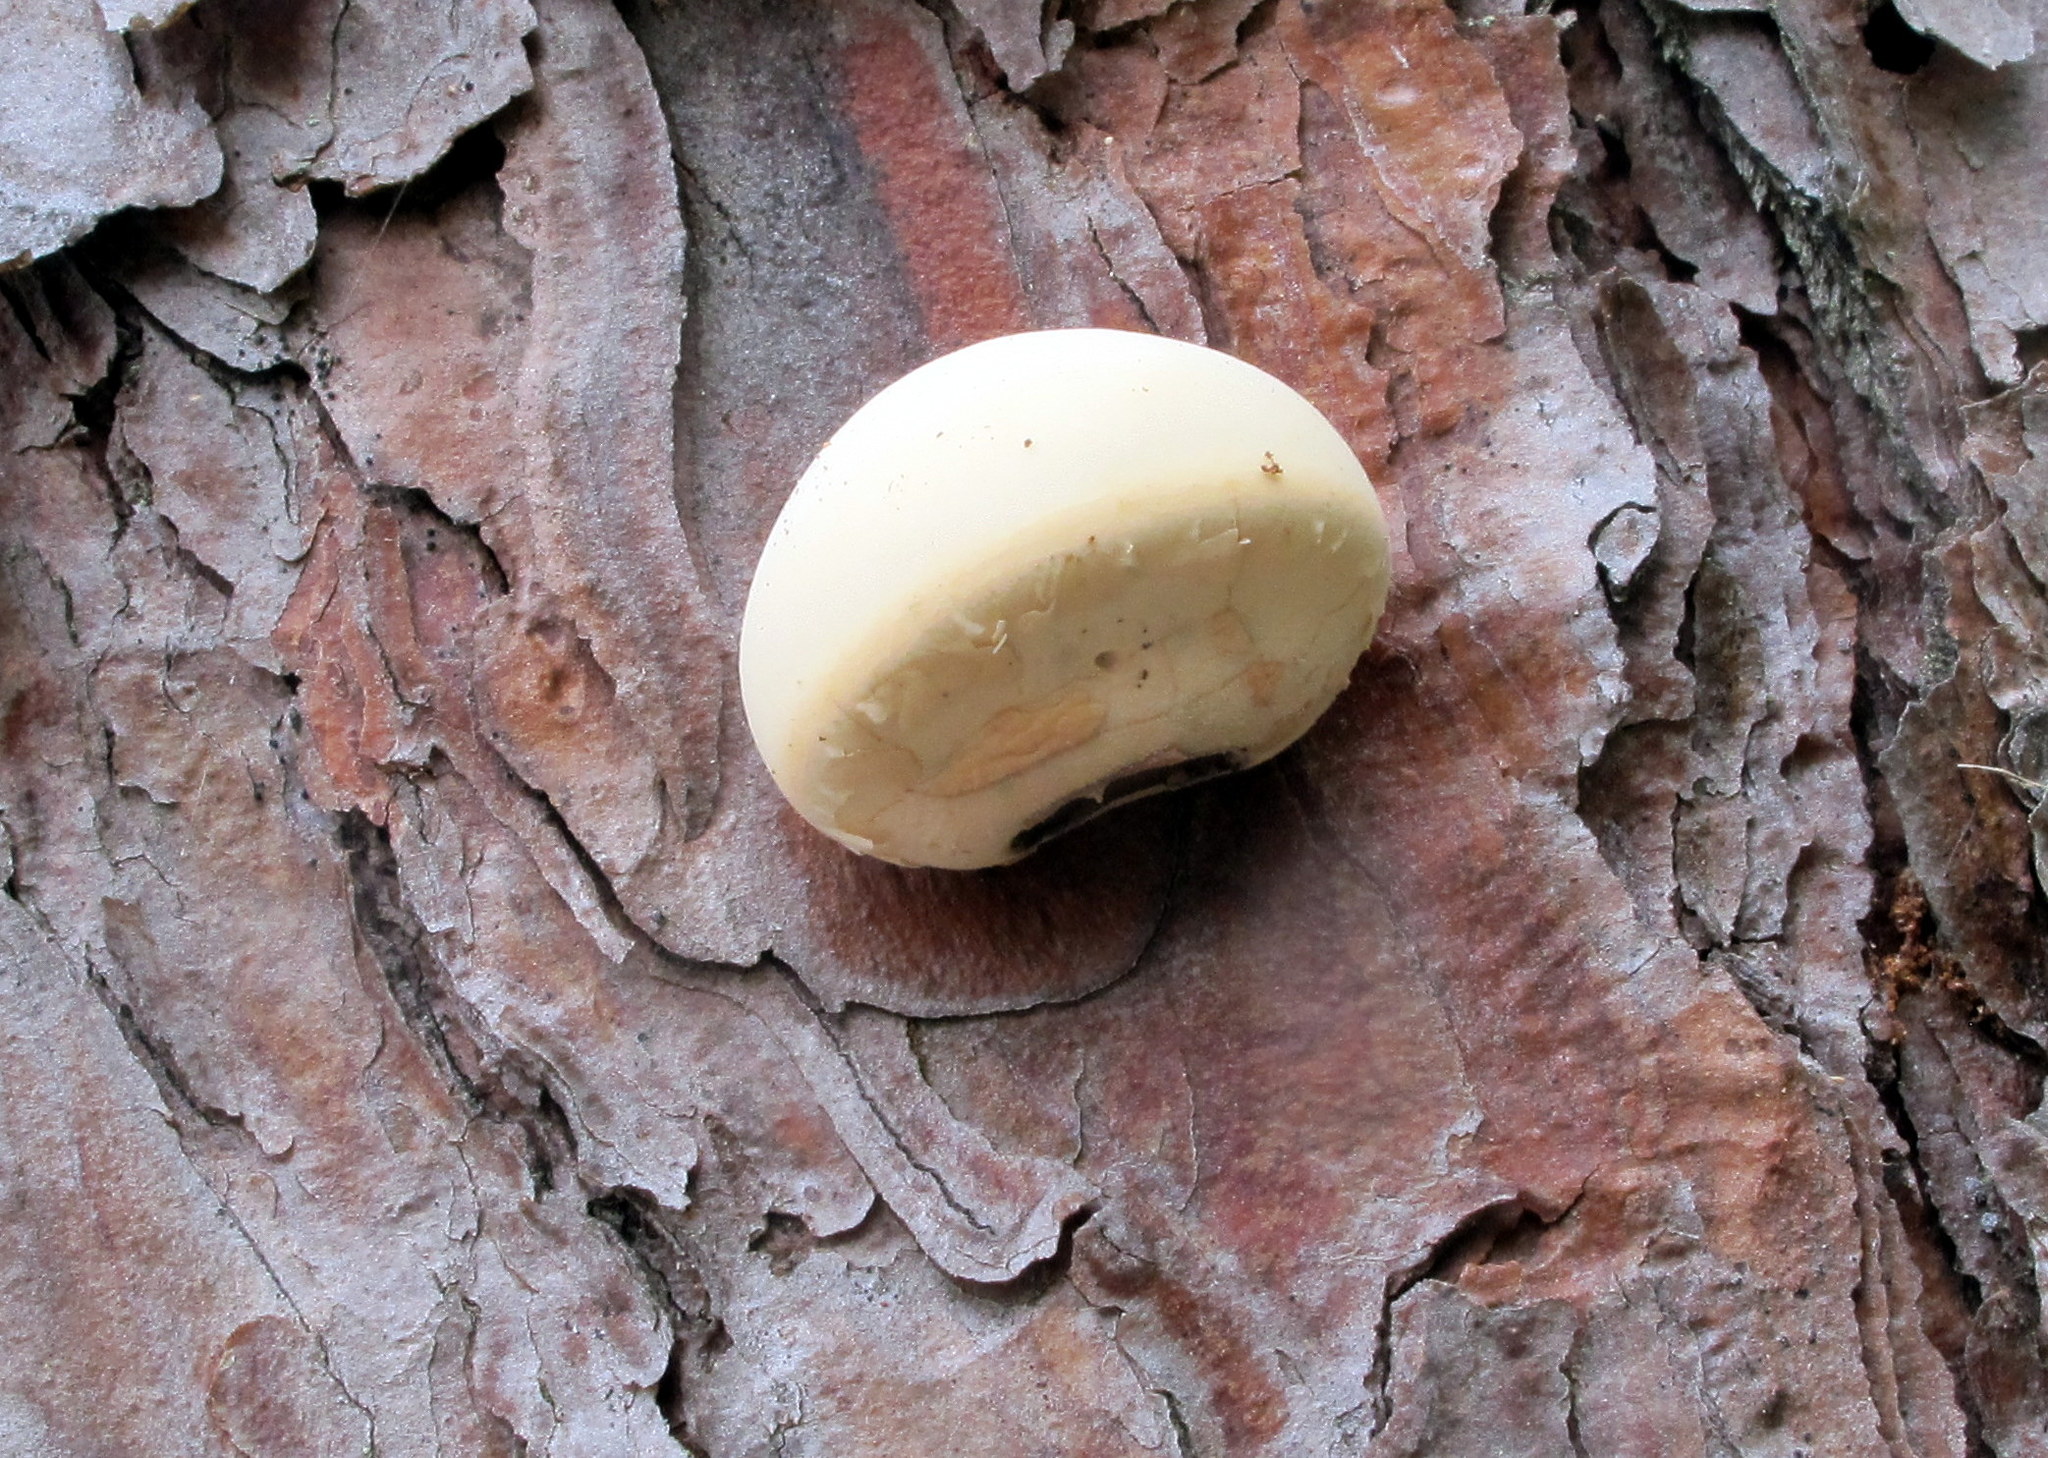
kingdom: Fungi
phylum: Basidiomycota
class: Agaricomycetes
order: Polyporales
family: Polyporaceae
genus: Cryptoporus
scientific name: Cryptoporus volvatus
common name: Veiled polypore
